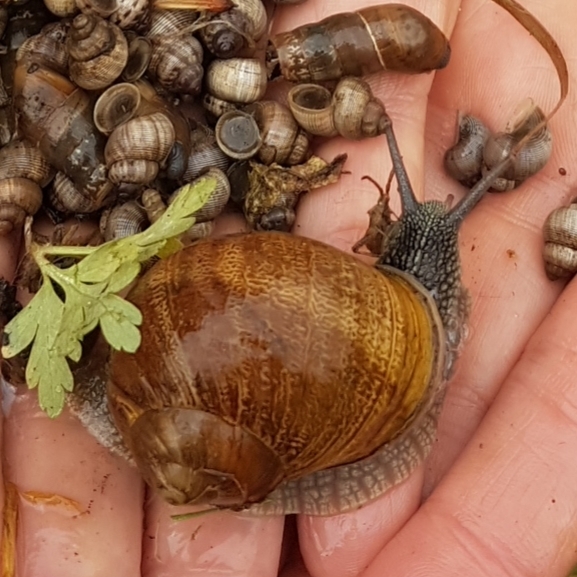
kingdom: Animalia
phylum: Mollusca
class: Gastropoda
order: Stylommatophora
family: Helicidae
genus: Cornu
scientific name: Cornu aspersum
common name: Brown garden snail
